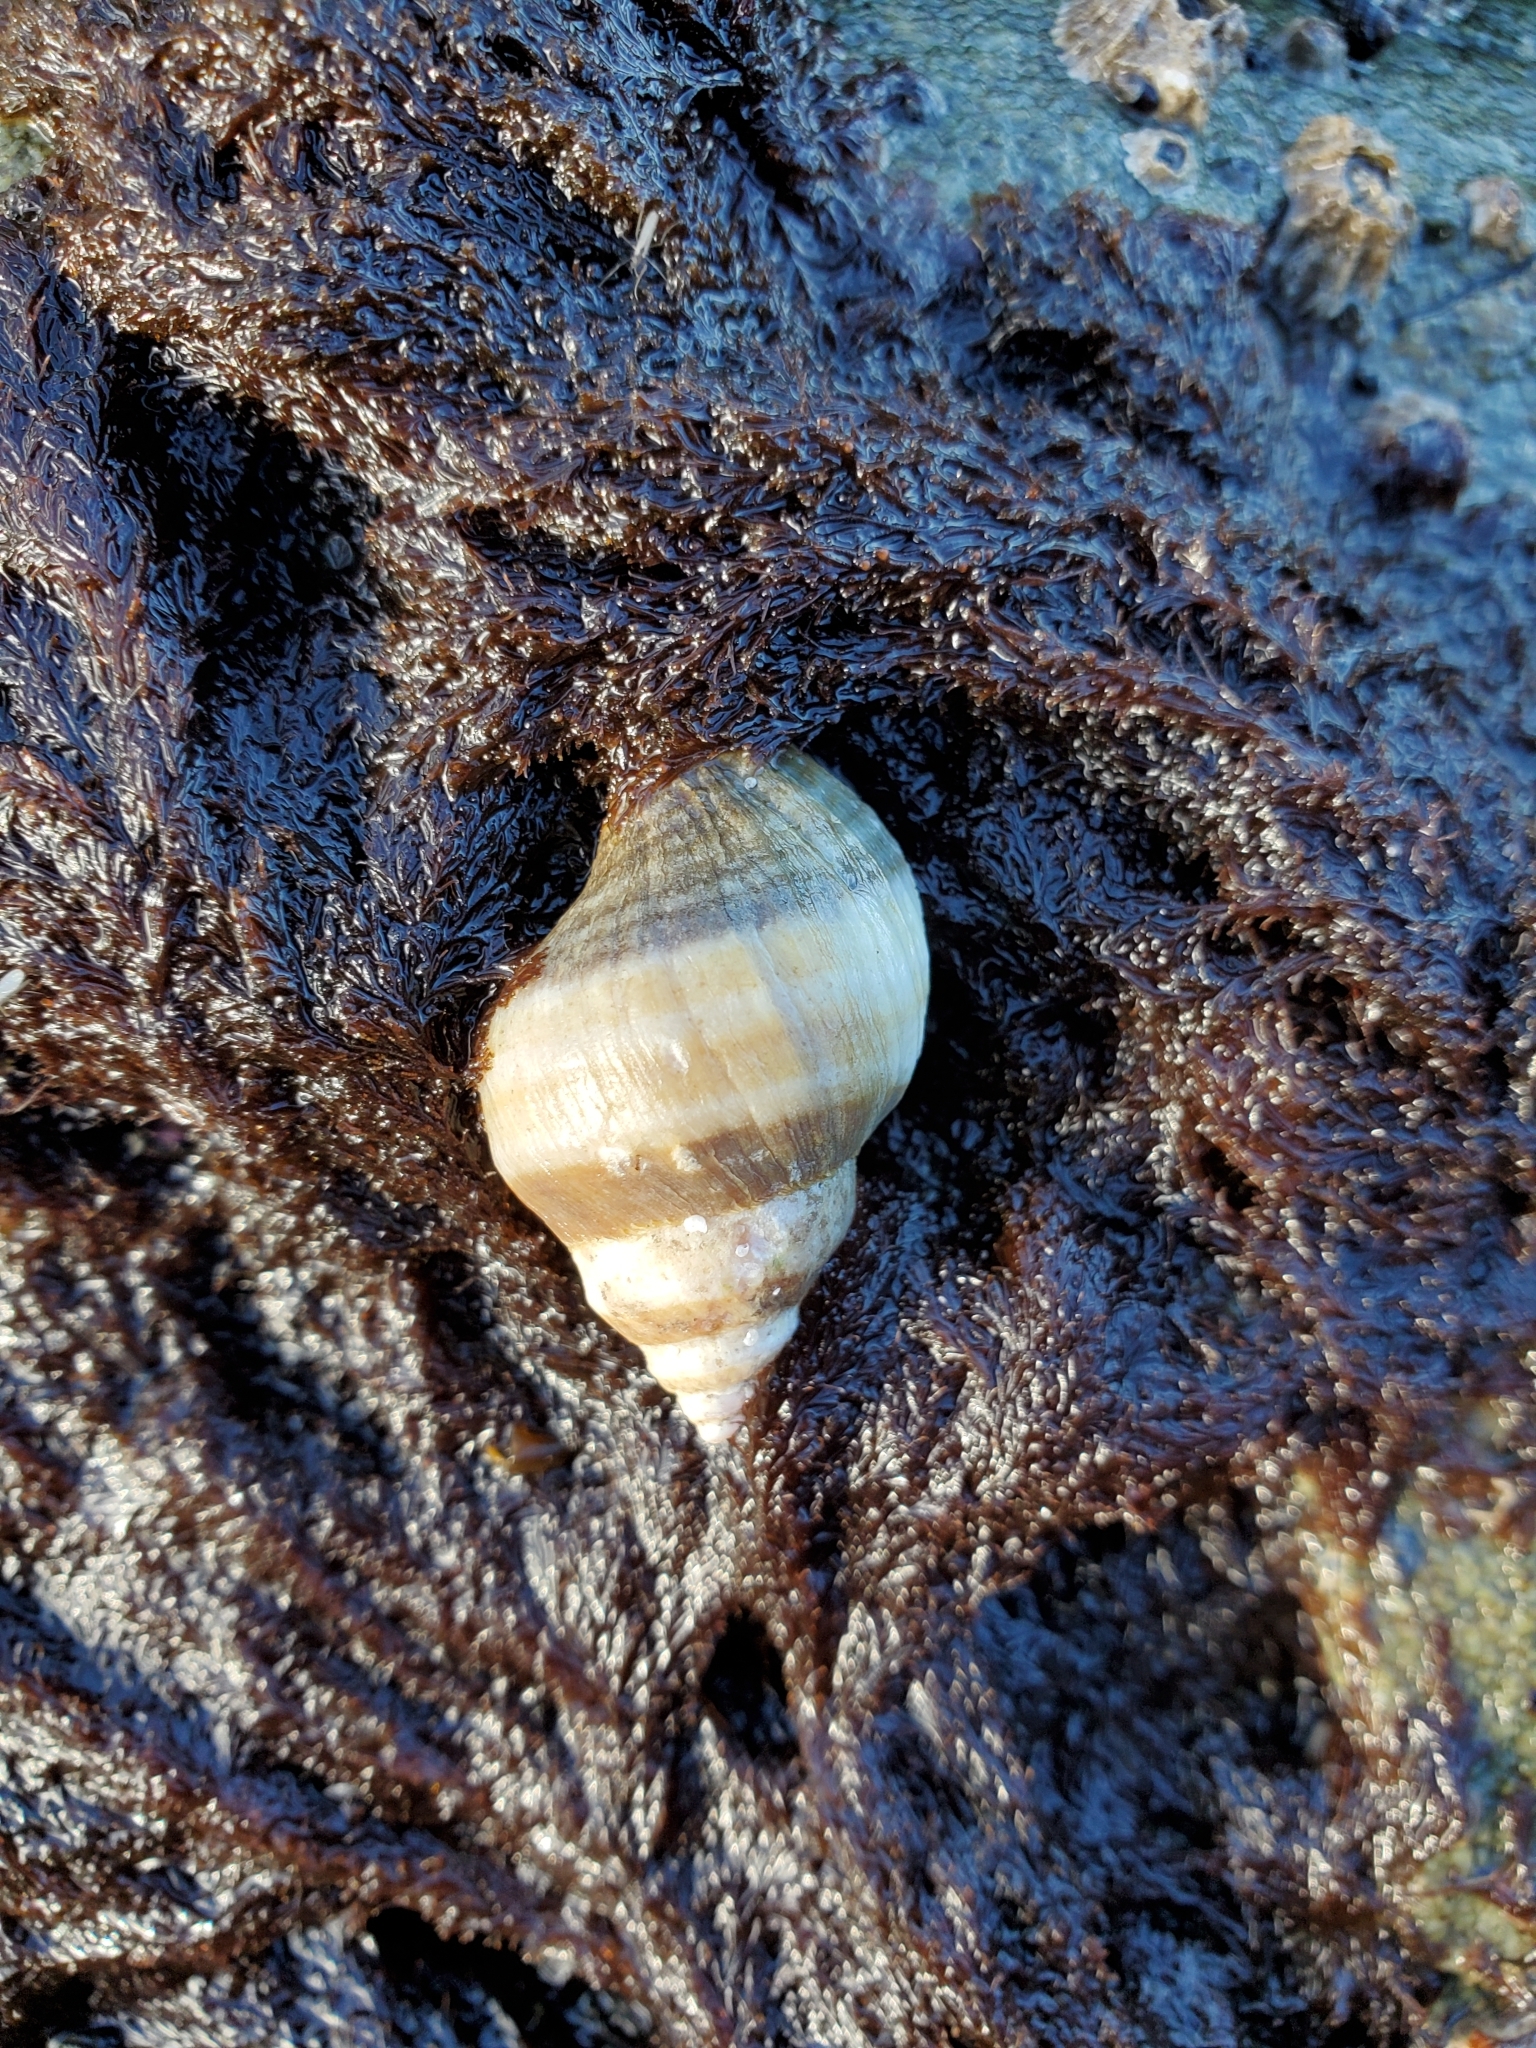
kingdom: Animalia
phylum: Mollusca
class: Gastropoda
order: Neogastropoda
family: Muricidae
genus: Nucella
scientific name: Nucella lamellosa
